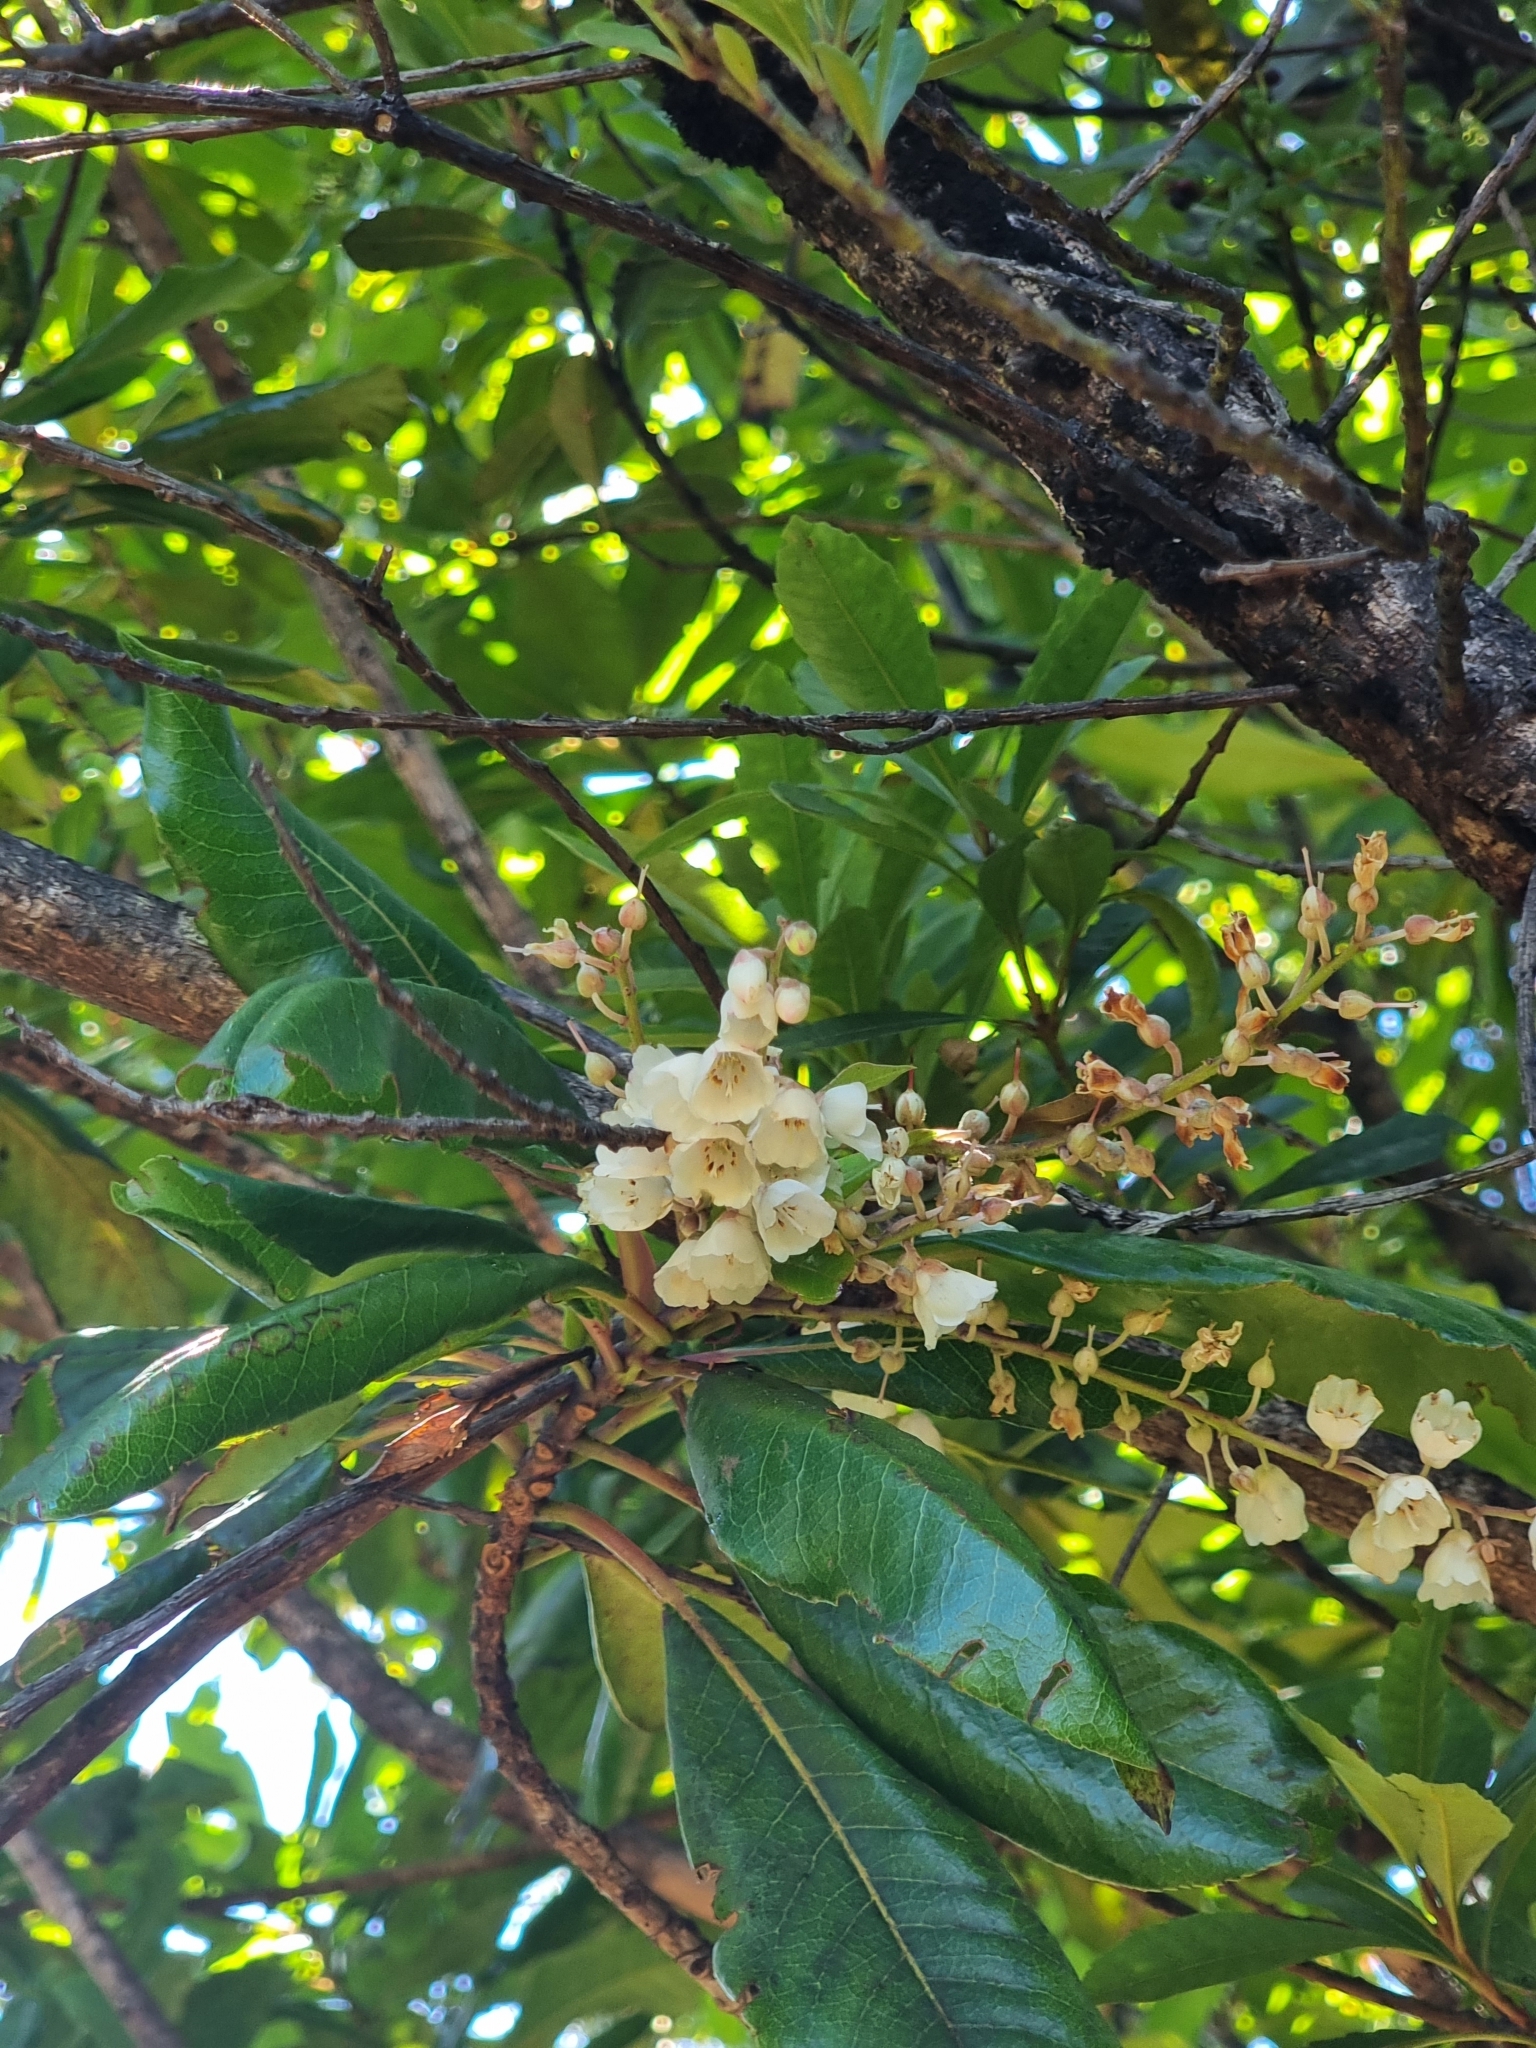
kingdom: Plantae
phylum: Tracheophyta
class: Magnoliopsida
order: Ericales
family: Clethraceae
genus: Clethra
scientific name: Clethra arborea
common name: Lily-of-the-valley-tree
